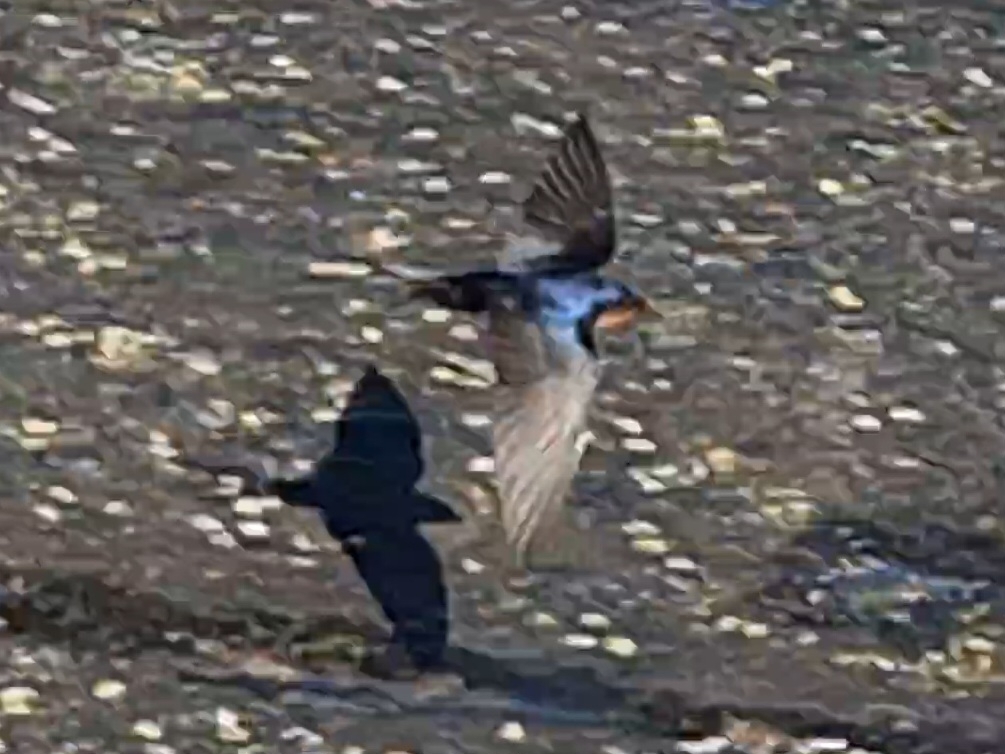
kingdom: Animalia
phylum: Chordata
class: Aves
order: Passeriformes
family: Hirundinidae
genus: Hirundo
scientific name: Hirundo neoxena
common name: Welcome swallow
